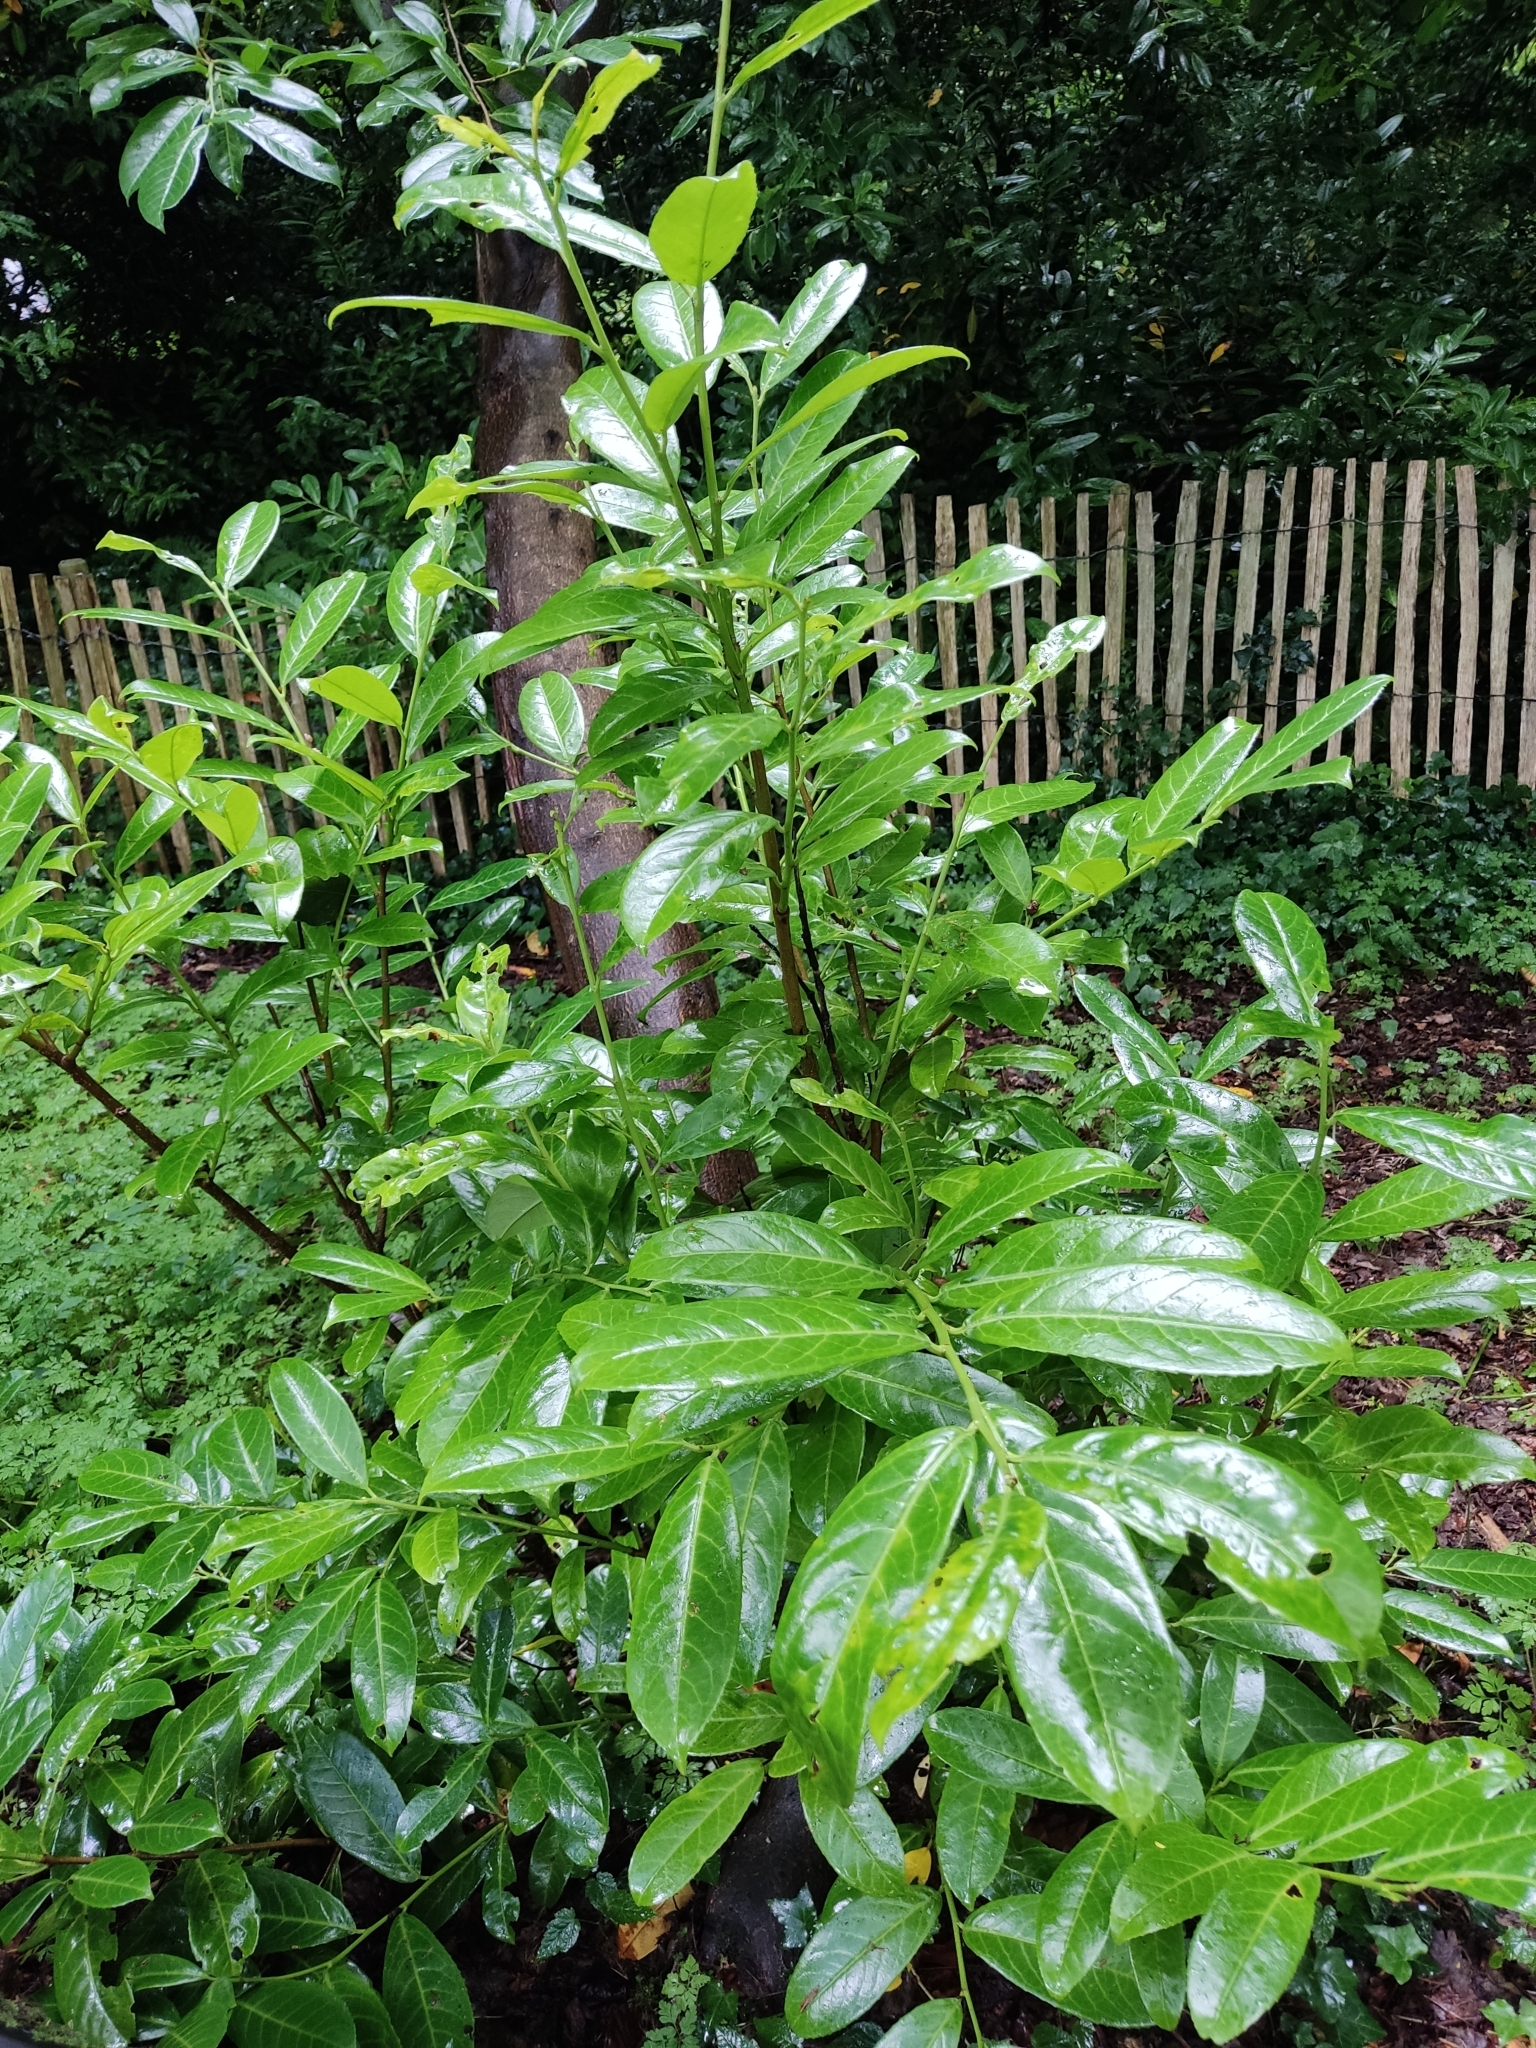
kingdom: Plantae
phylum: Tracheophyta
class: Magnoliopsida
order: Rosales
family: Rosaceae
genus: Prunus
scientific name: Prunus laurocerasus
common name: Cherry laurel
